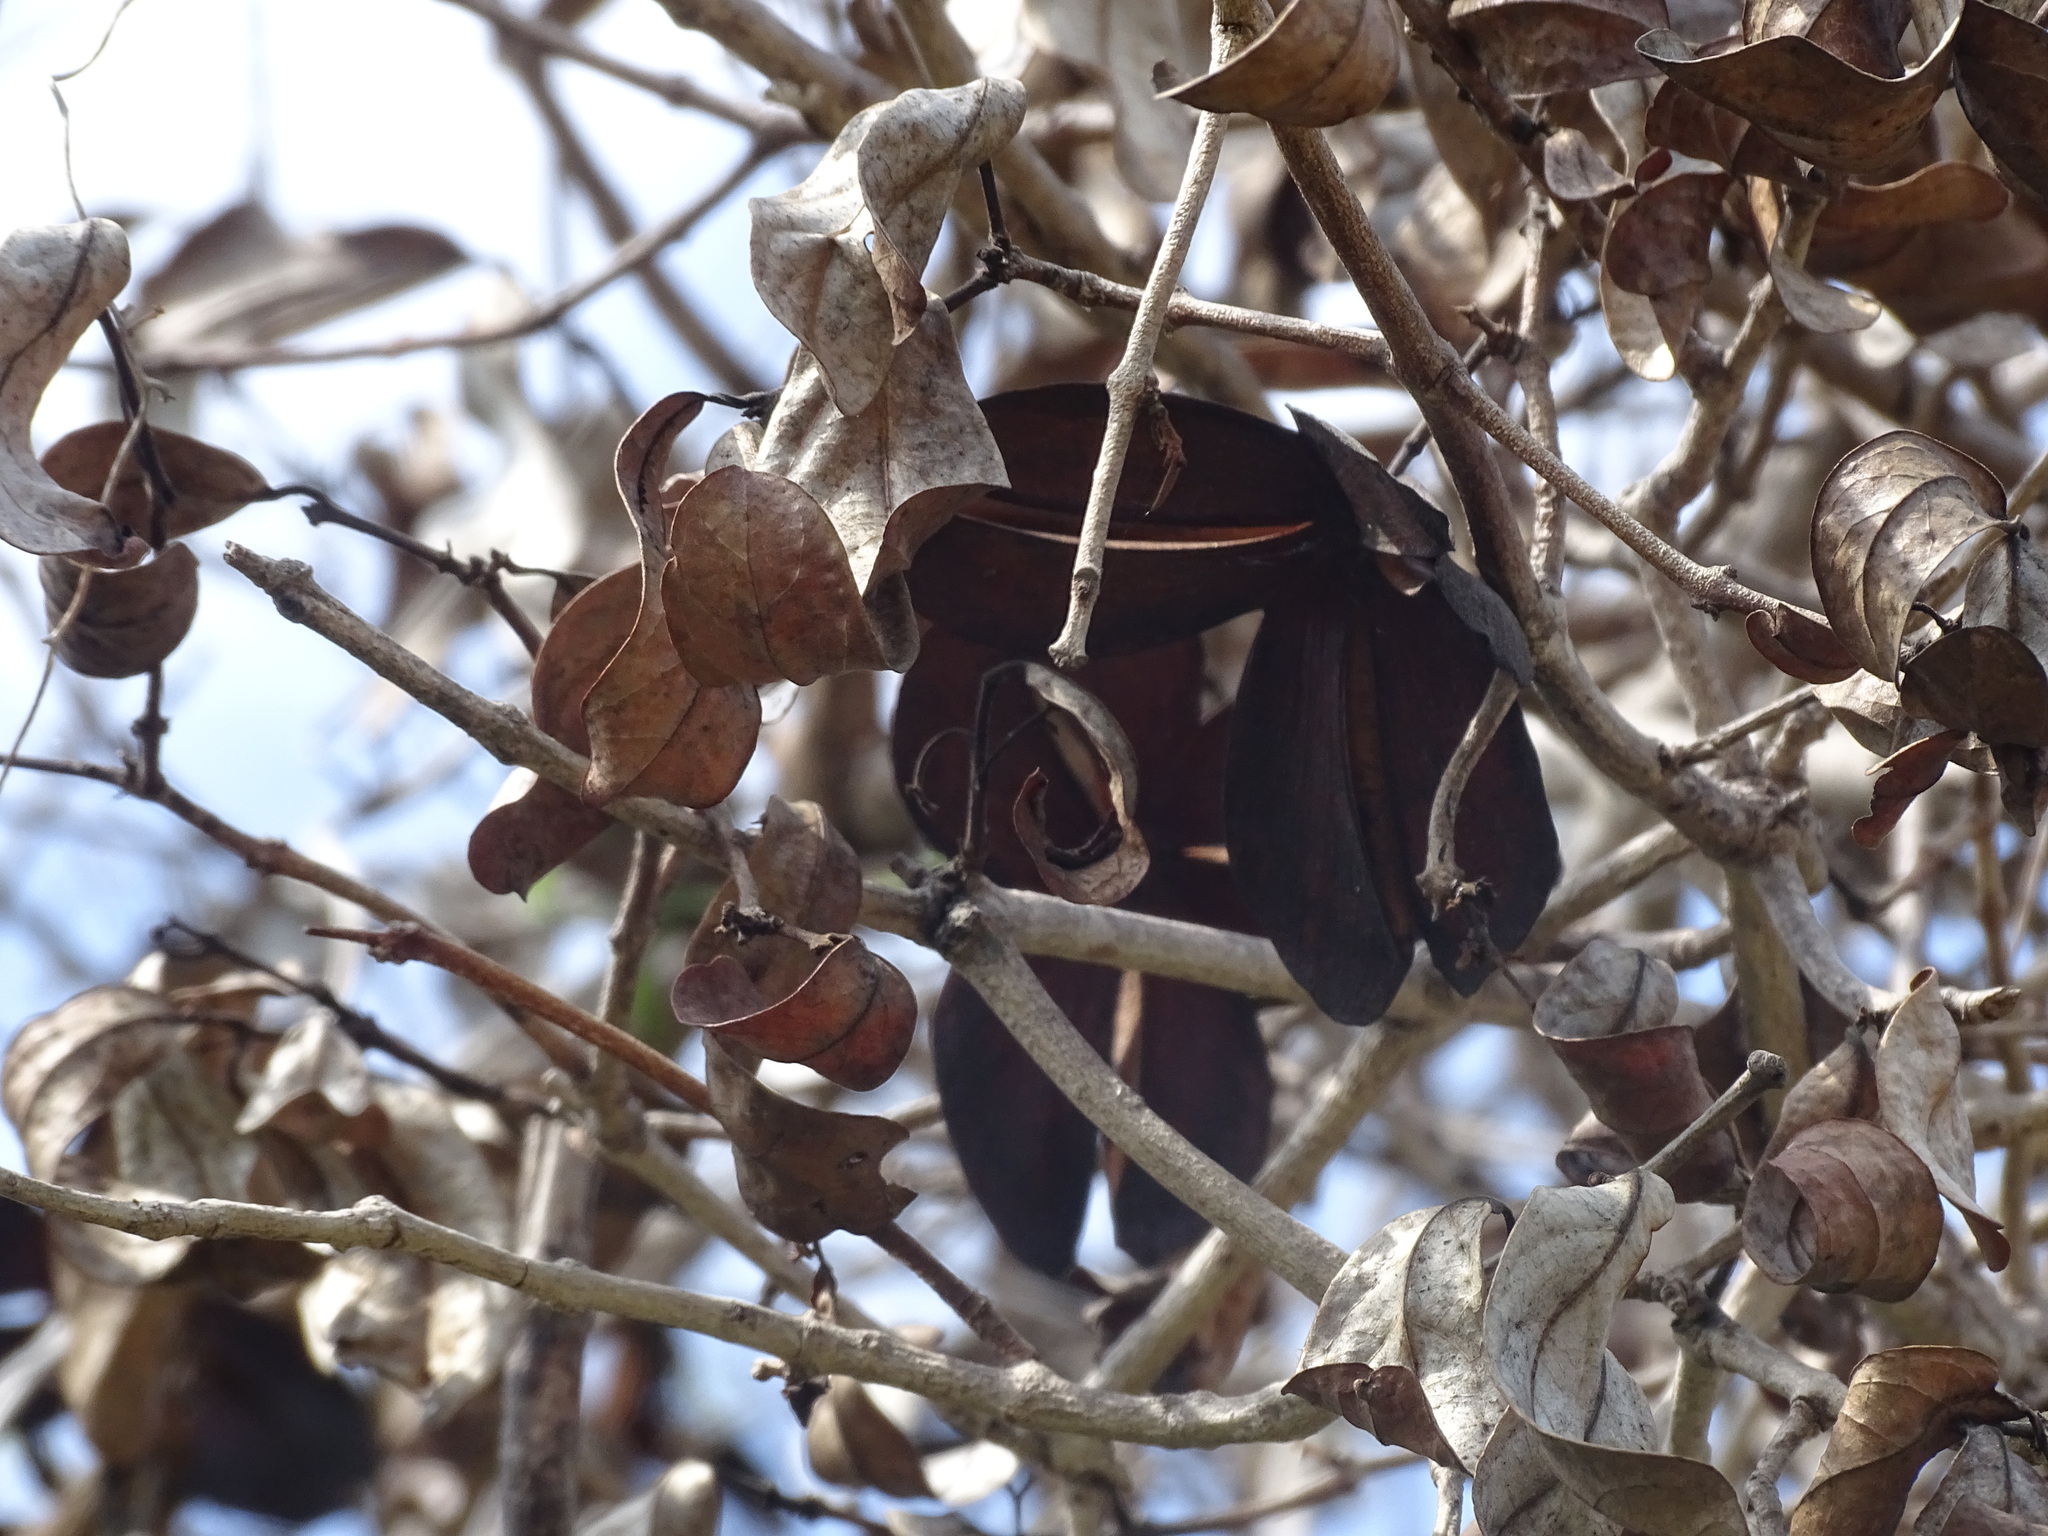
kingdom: Plantae
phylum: Tracheophyta
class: Magnoliopsida
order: Celastrales
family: Celastraceae
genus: Semialarium
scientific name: Semialarium mexicanum
